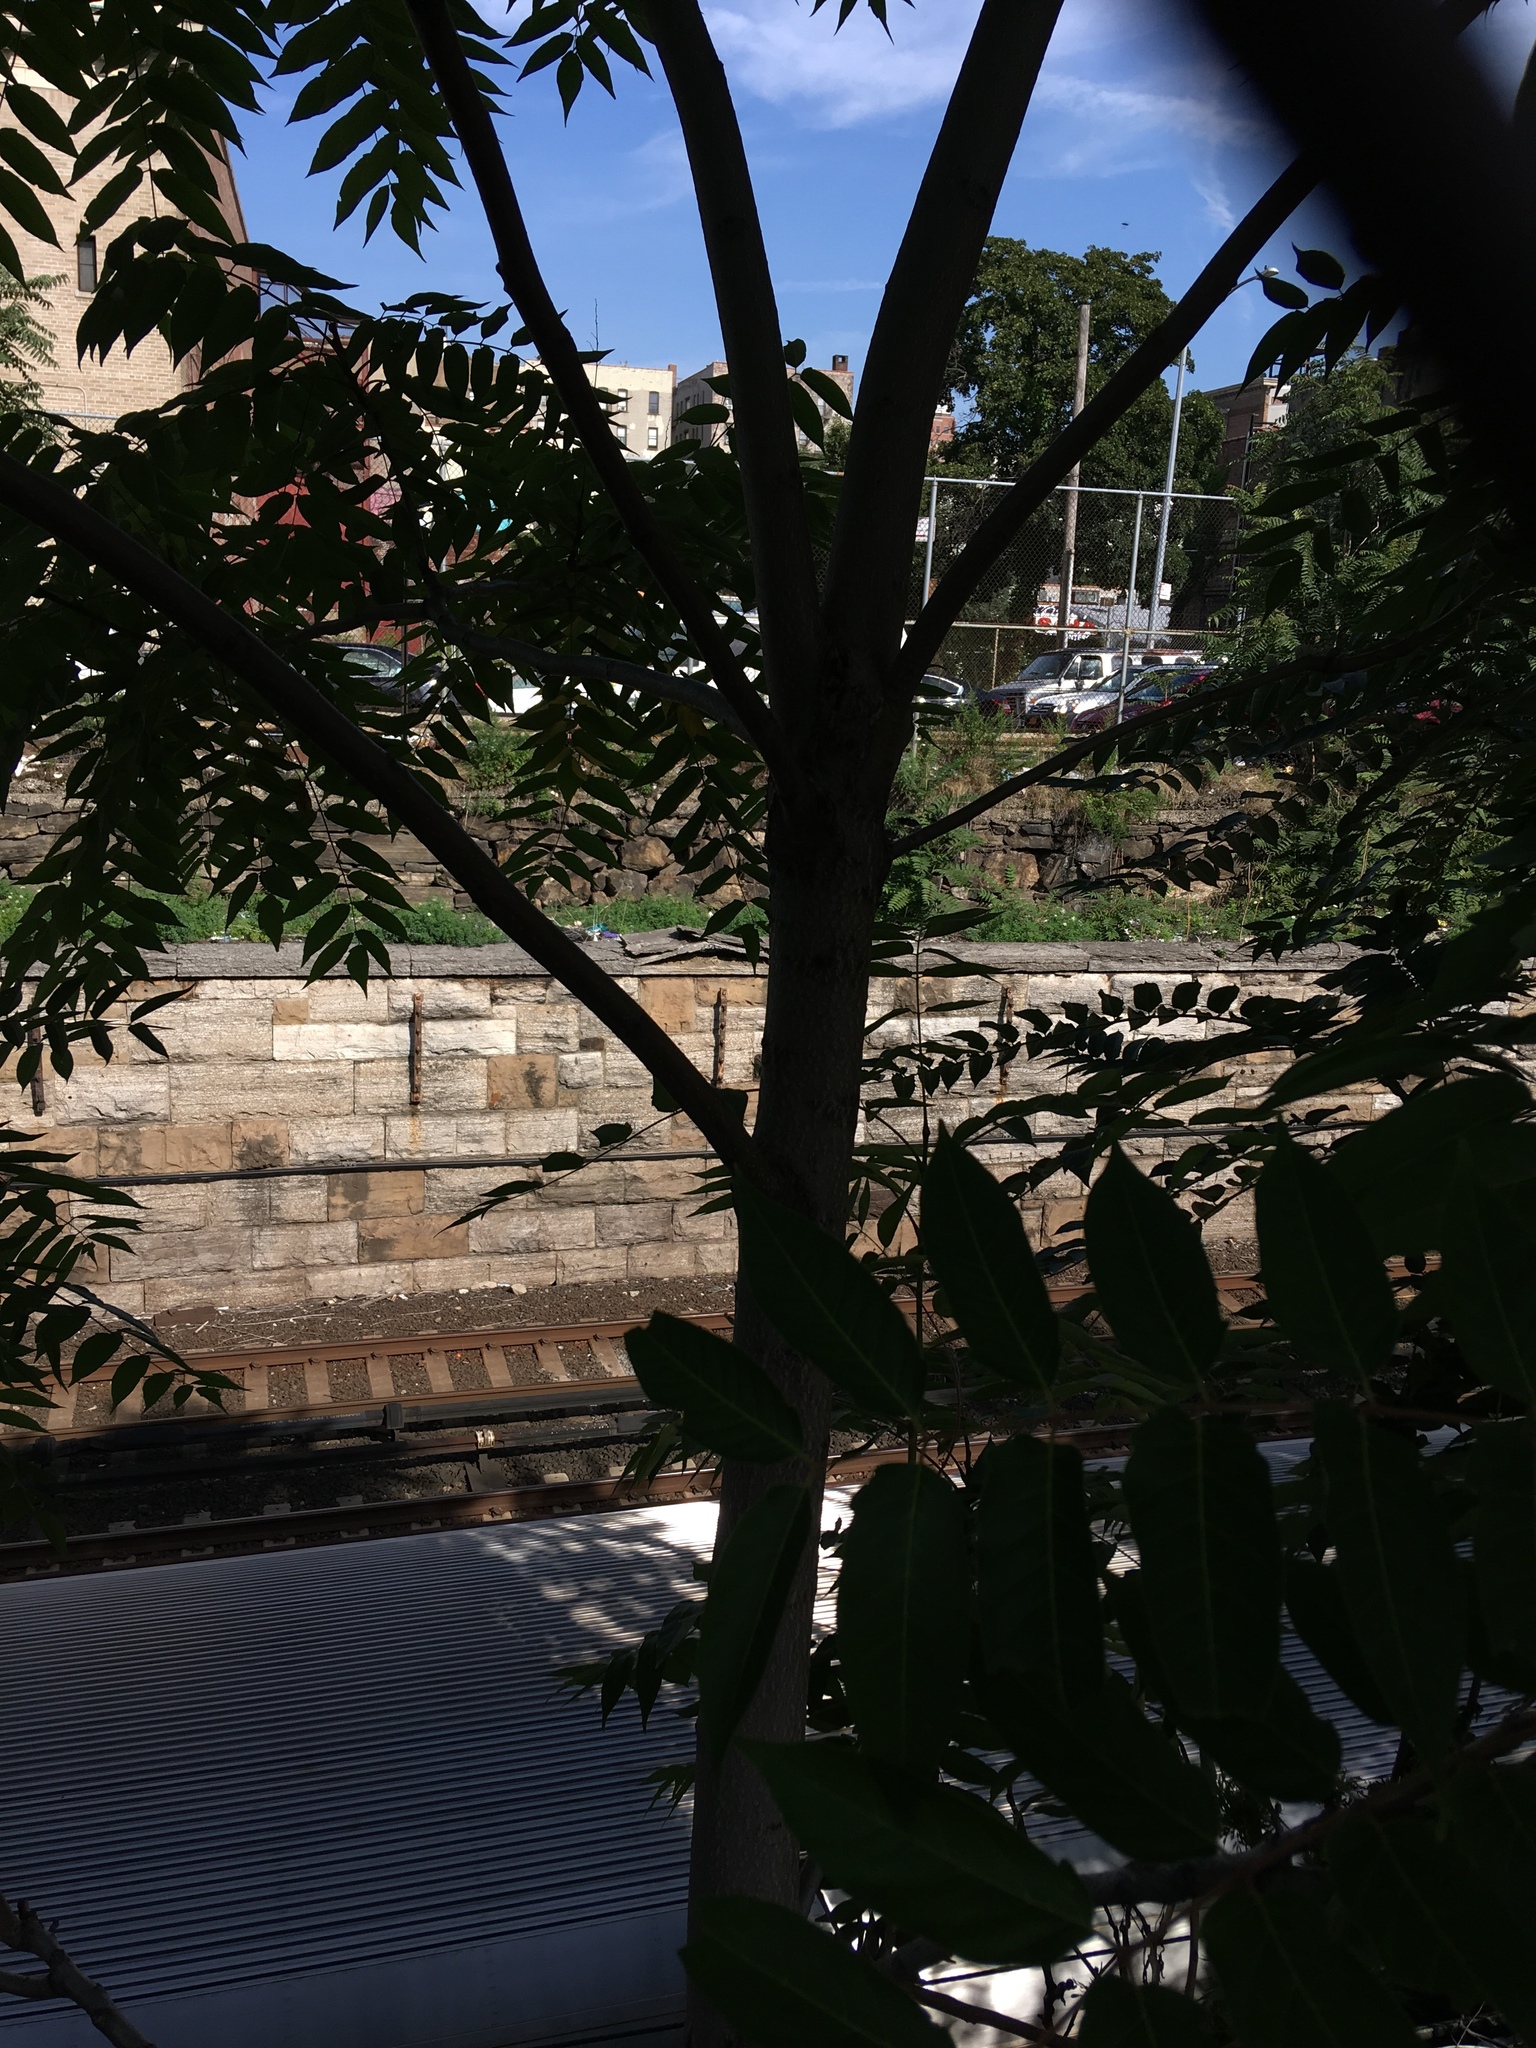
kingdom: Plantae
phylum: Tracheophyta
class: Magnoliopsida
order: Sapindales
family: Simaroubaceae
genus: Ailanthus
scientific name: Ailanthus altissima
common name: Tree-of-heaven
